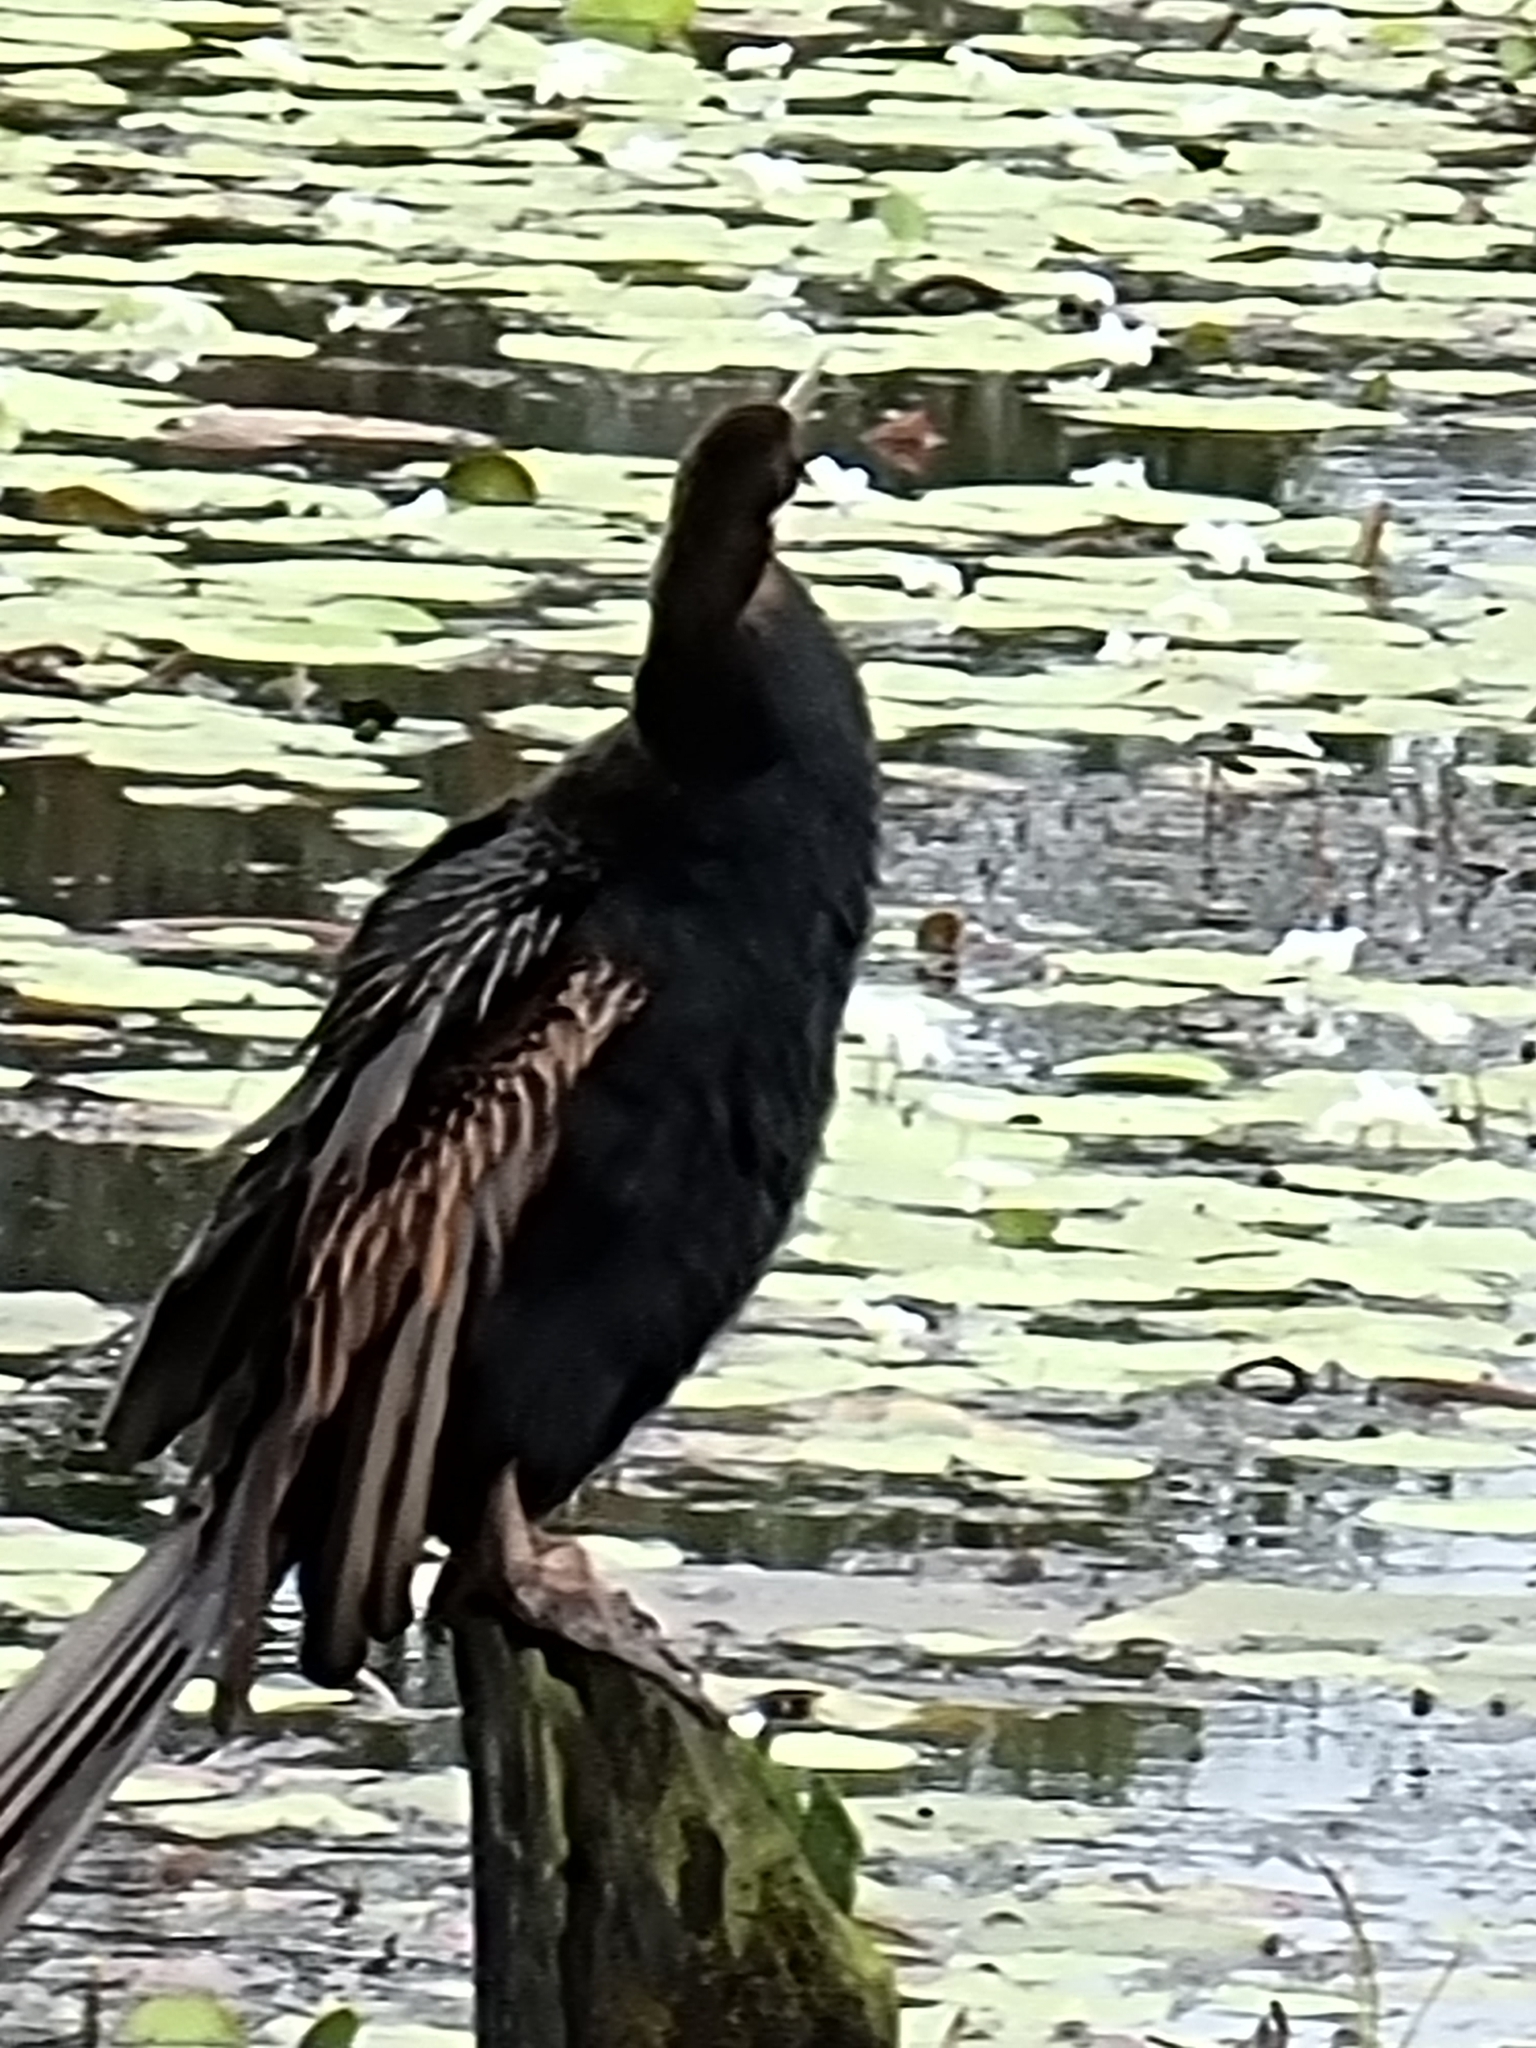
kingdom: Animalia
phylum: Chordata
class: Aves
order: Suliformes
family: Anhingidae
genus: Anhinga
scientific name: Anhinga novaehollandiae
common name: Australasian darter
